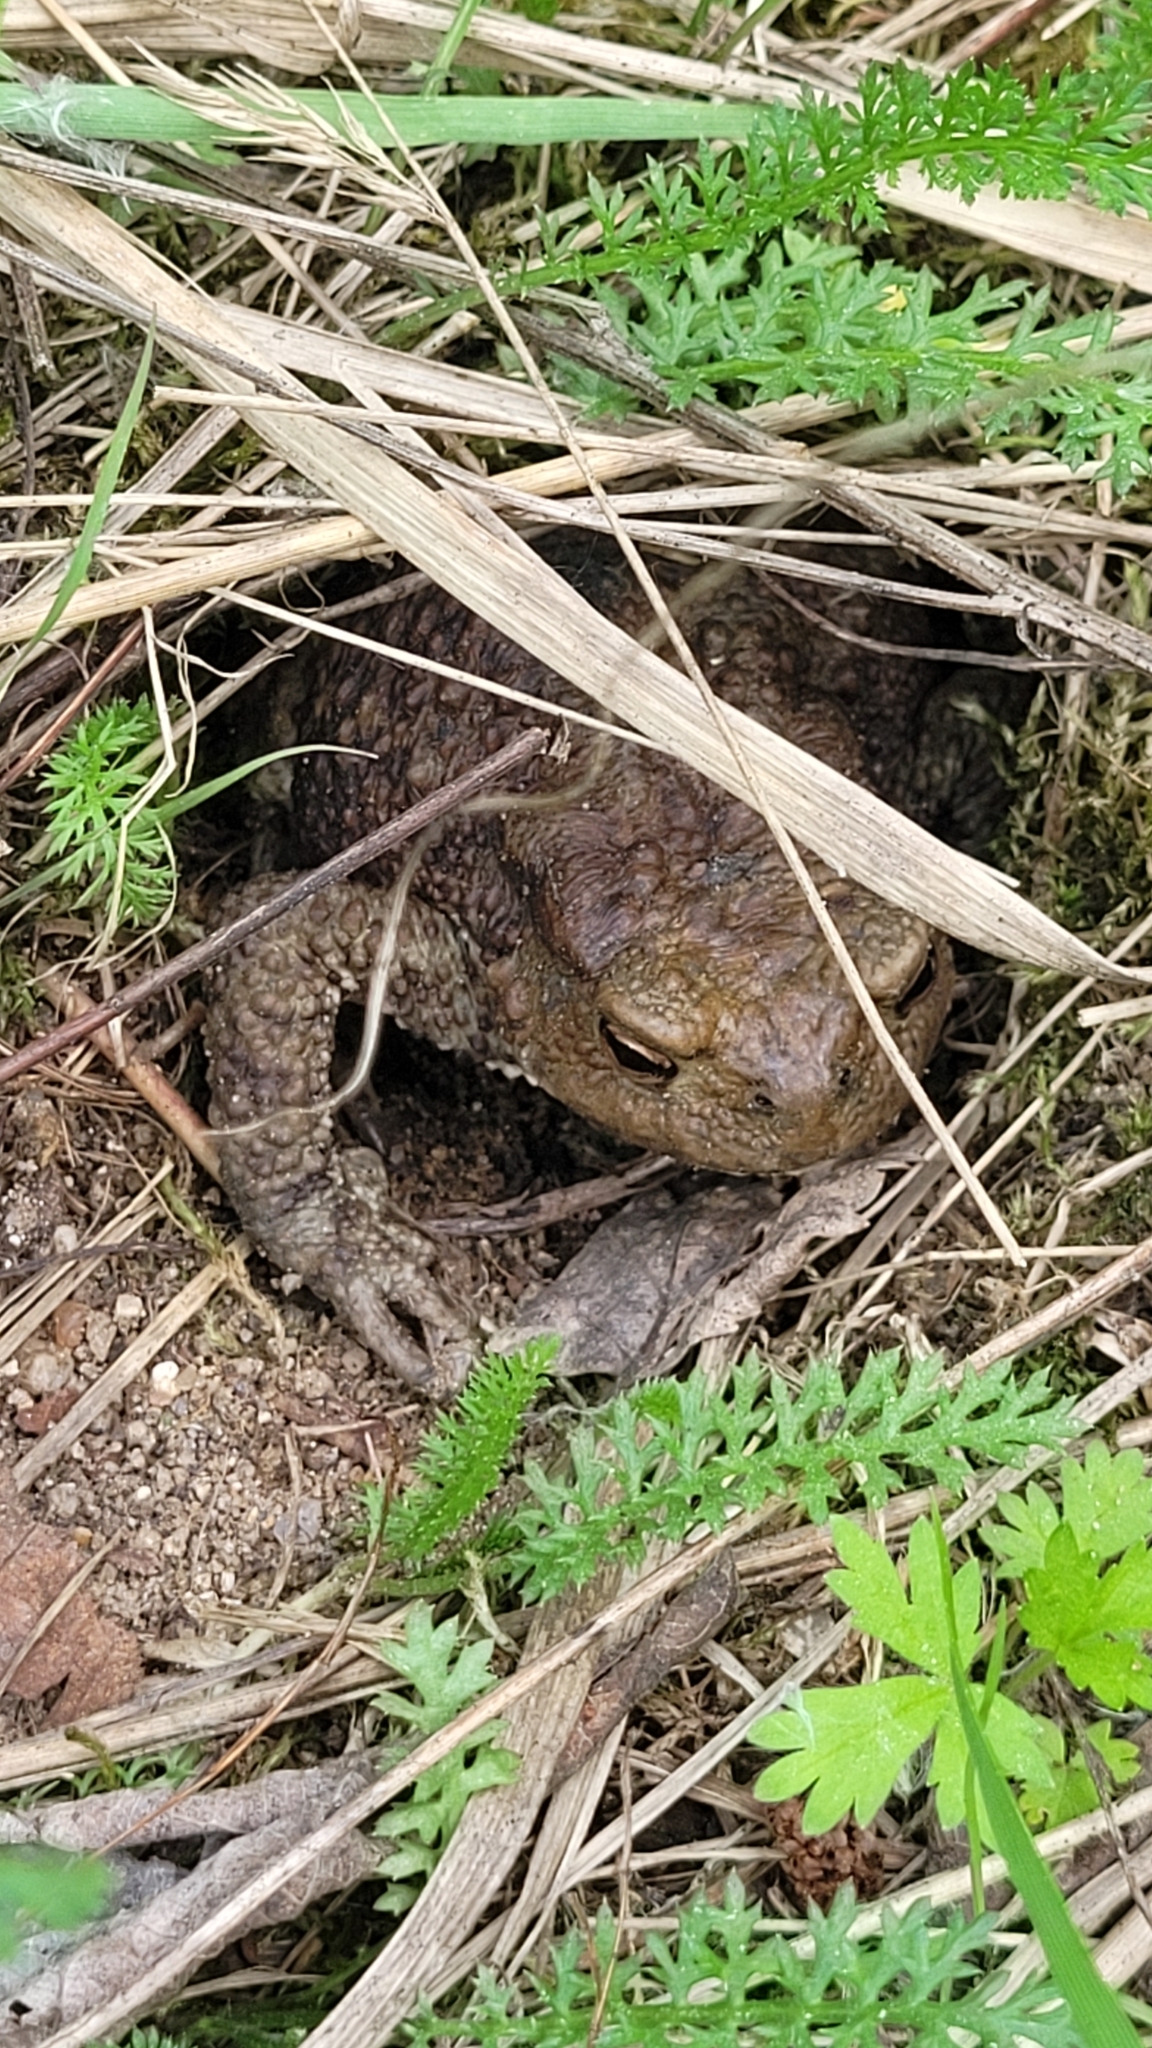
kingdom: Animalia
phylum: Chordata
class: Amphibia
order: Anura
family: Bufonidae
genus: Bufo
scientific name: Bufo bufo
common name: Common toad
